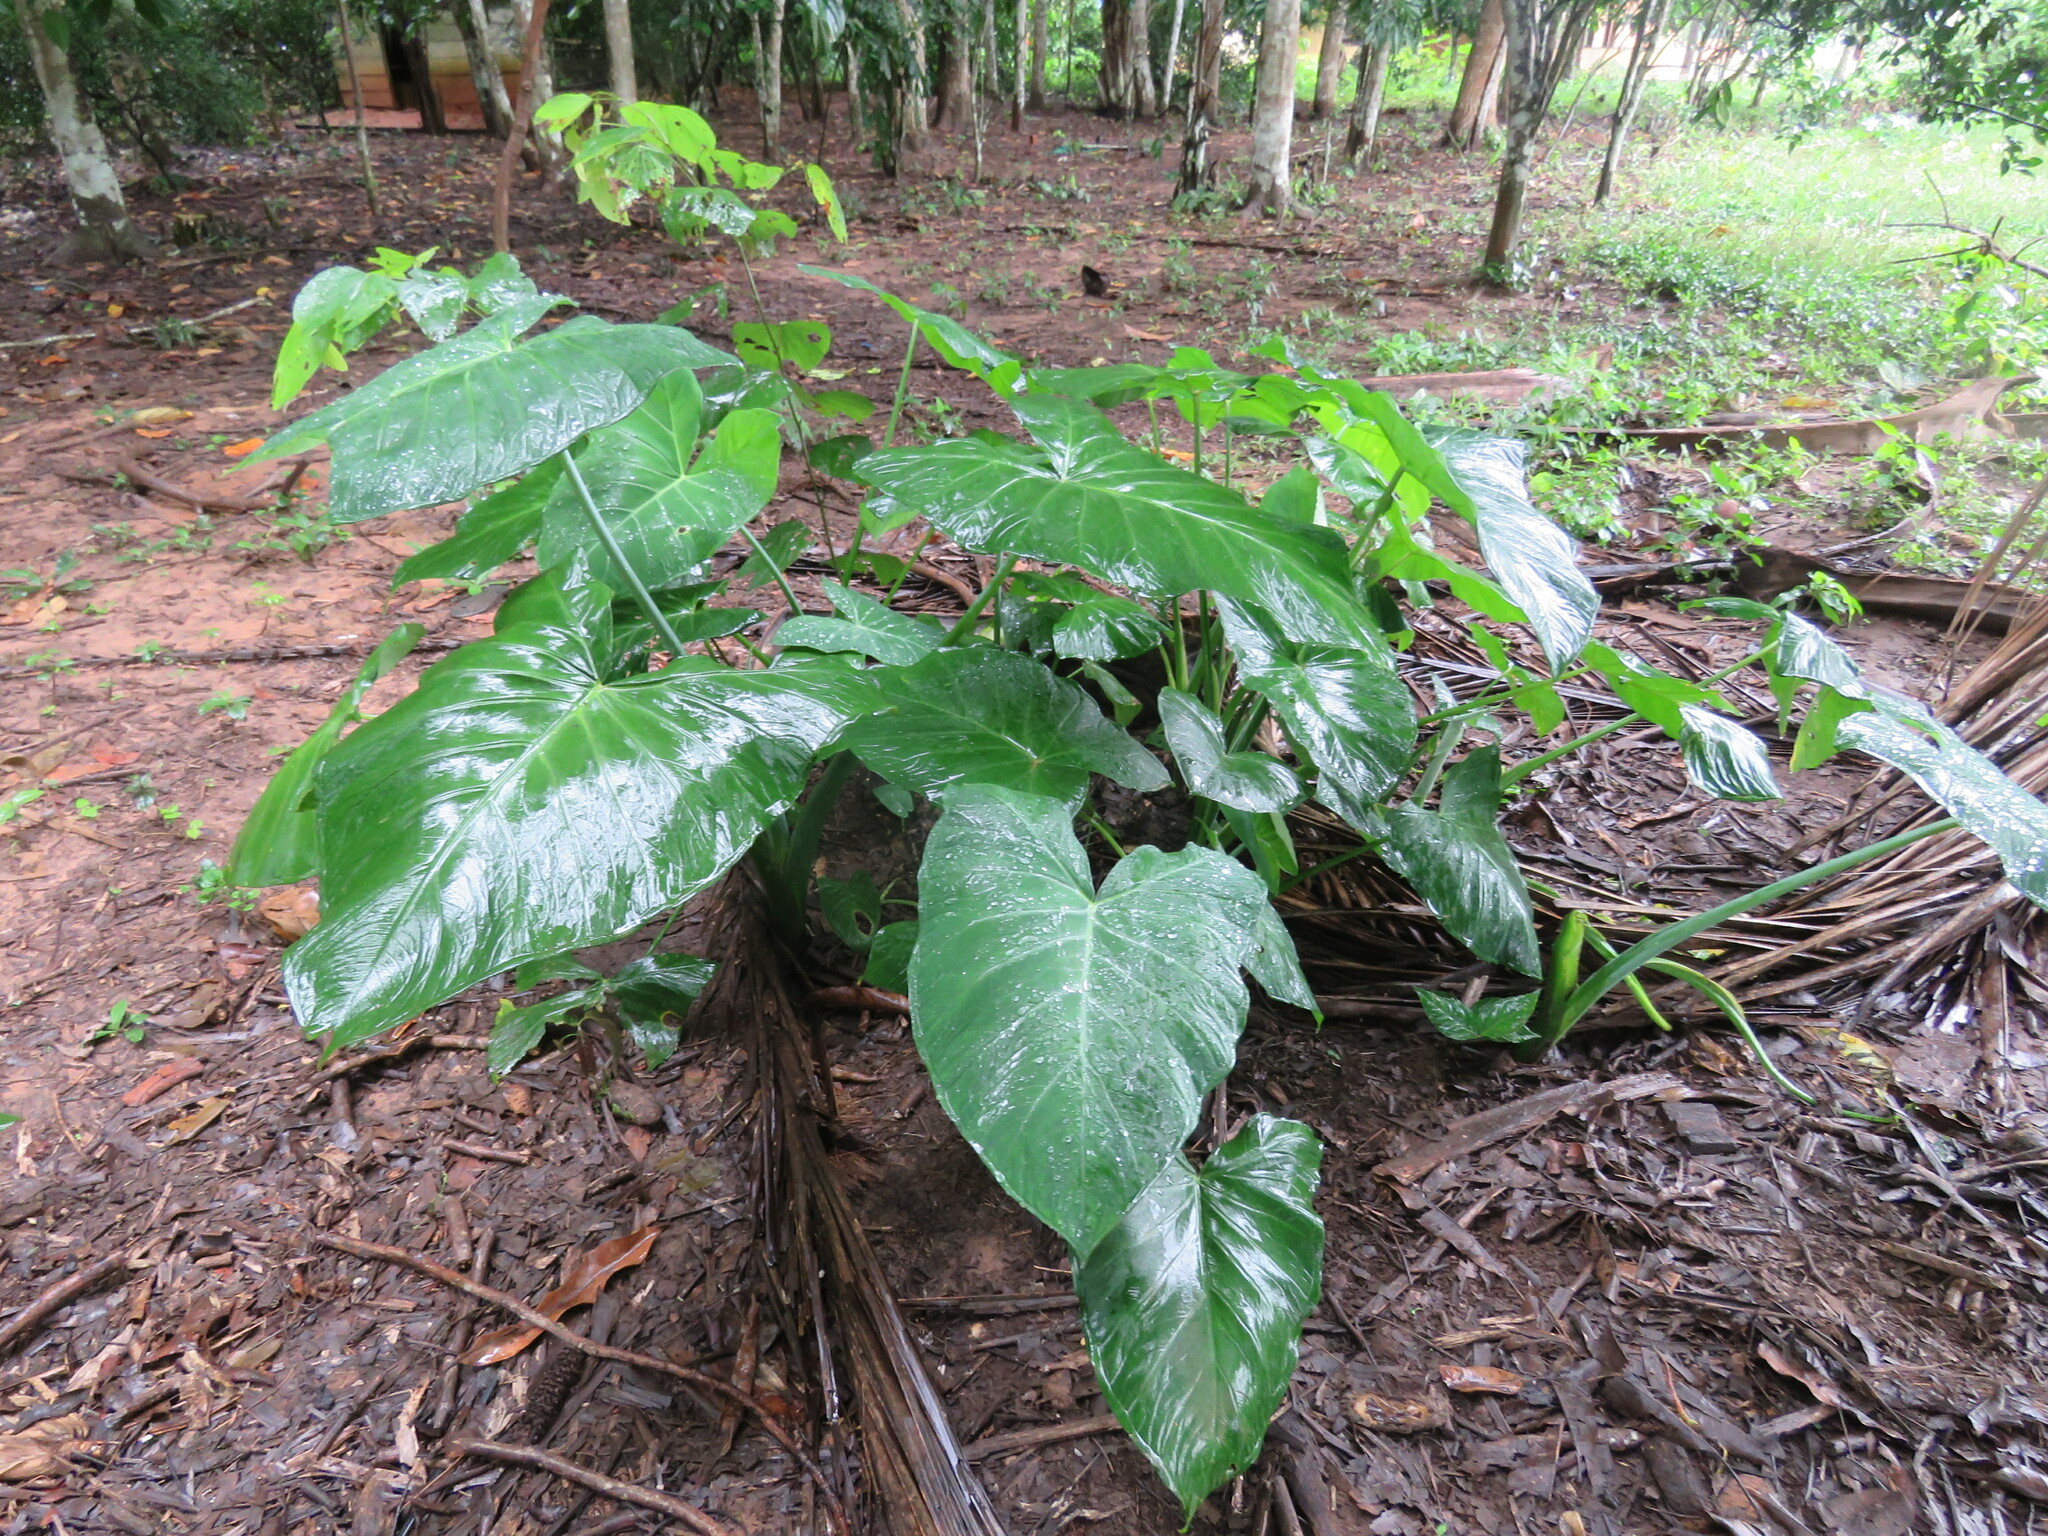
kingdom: Plantae
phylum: Tracheophyta
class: Liliopsida
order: Alismatales
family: Araceae
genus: Xanthosoma
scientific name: Xanthosoma sagittifolium
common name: Arrowleaf elephant's ear
